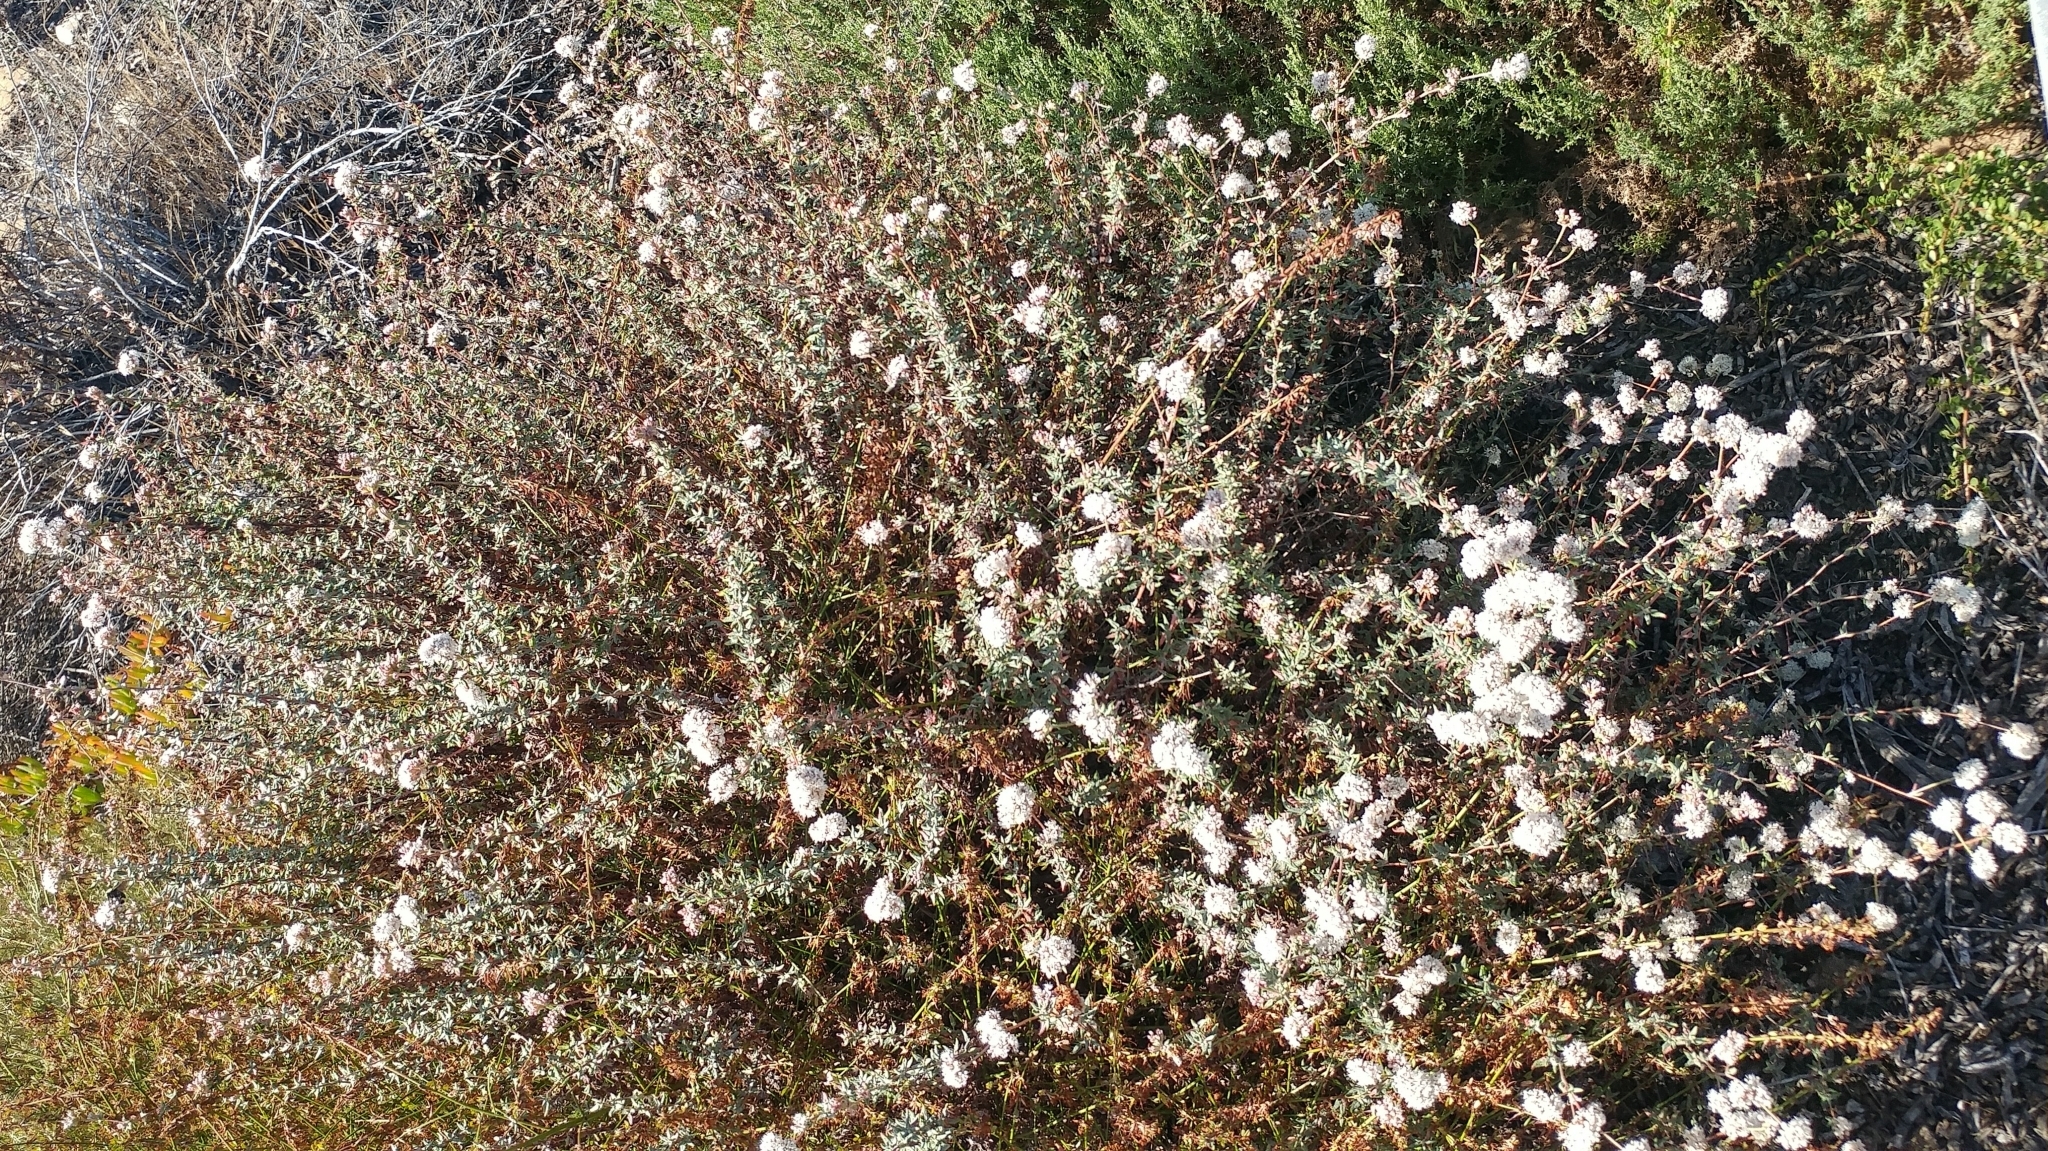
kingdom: Plantae
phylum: Tracheophyta
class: Magnoliopsida
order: Caryophyllales
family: Polygonaceae
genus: Eriogonum
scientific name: Eriogonum parvifolium
